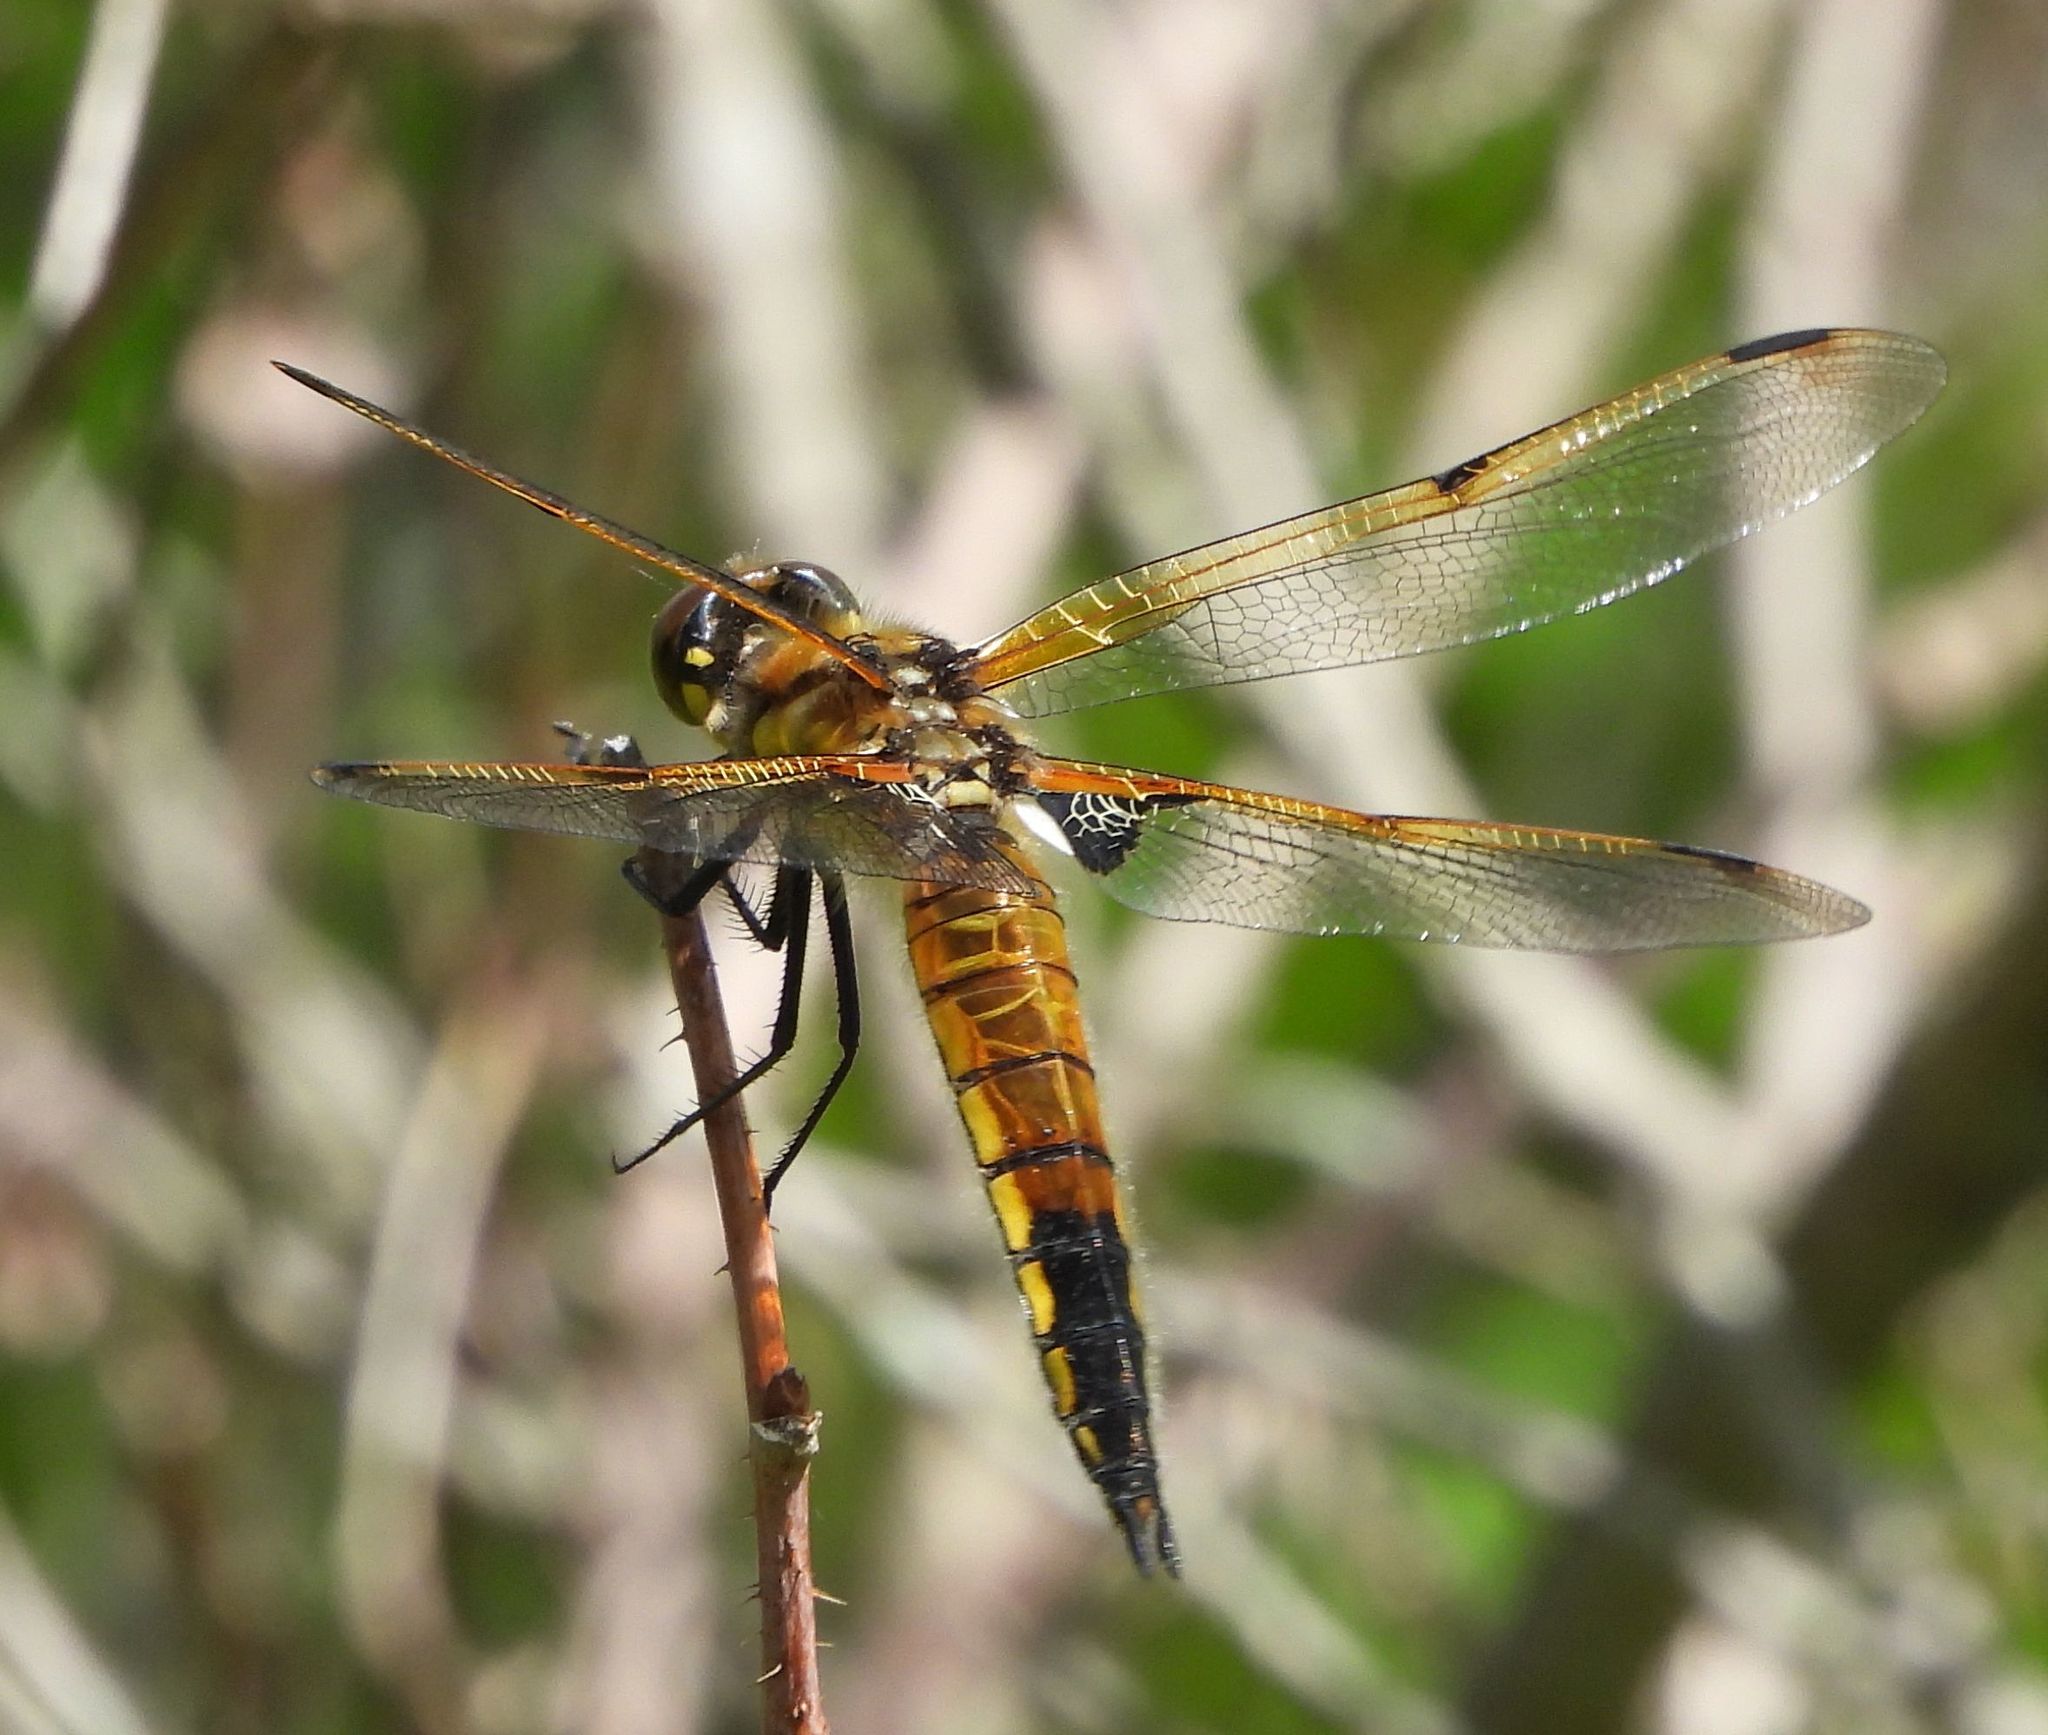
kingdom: Animalia
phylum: Arthropoda
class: Insecta
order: Odonata
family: Libellulidae
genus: Libellula
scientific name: Libellula quadrimaculata
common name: Four-spotted chaser
